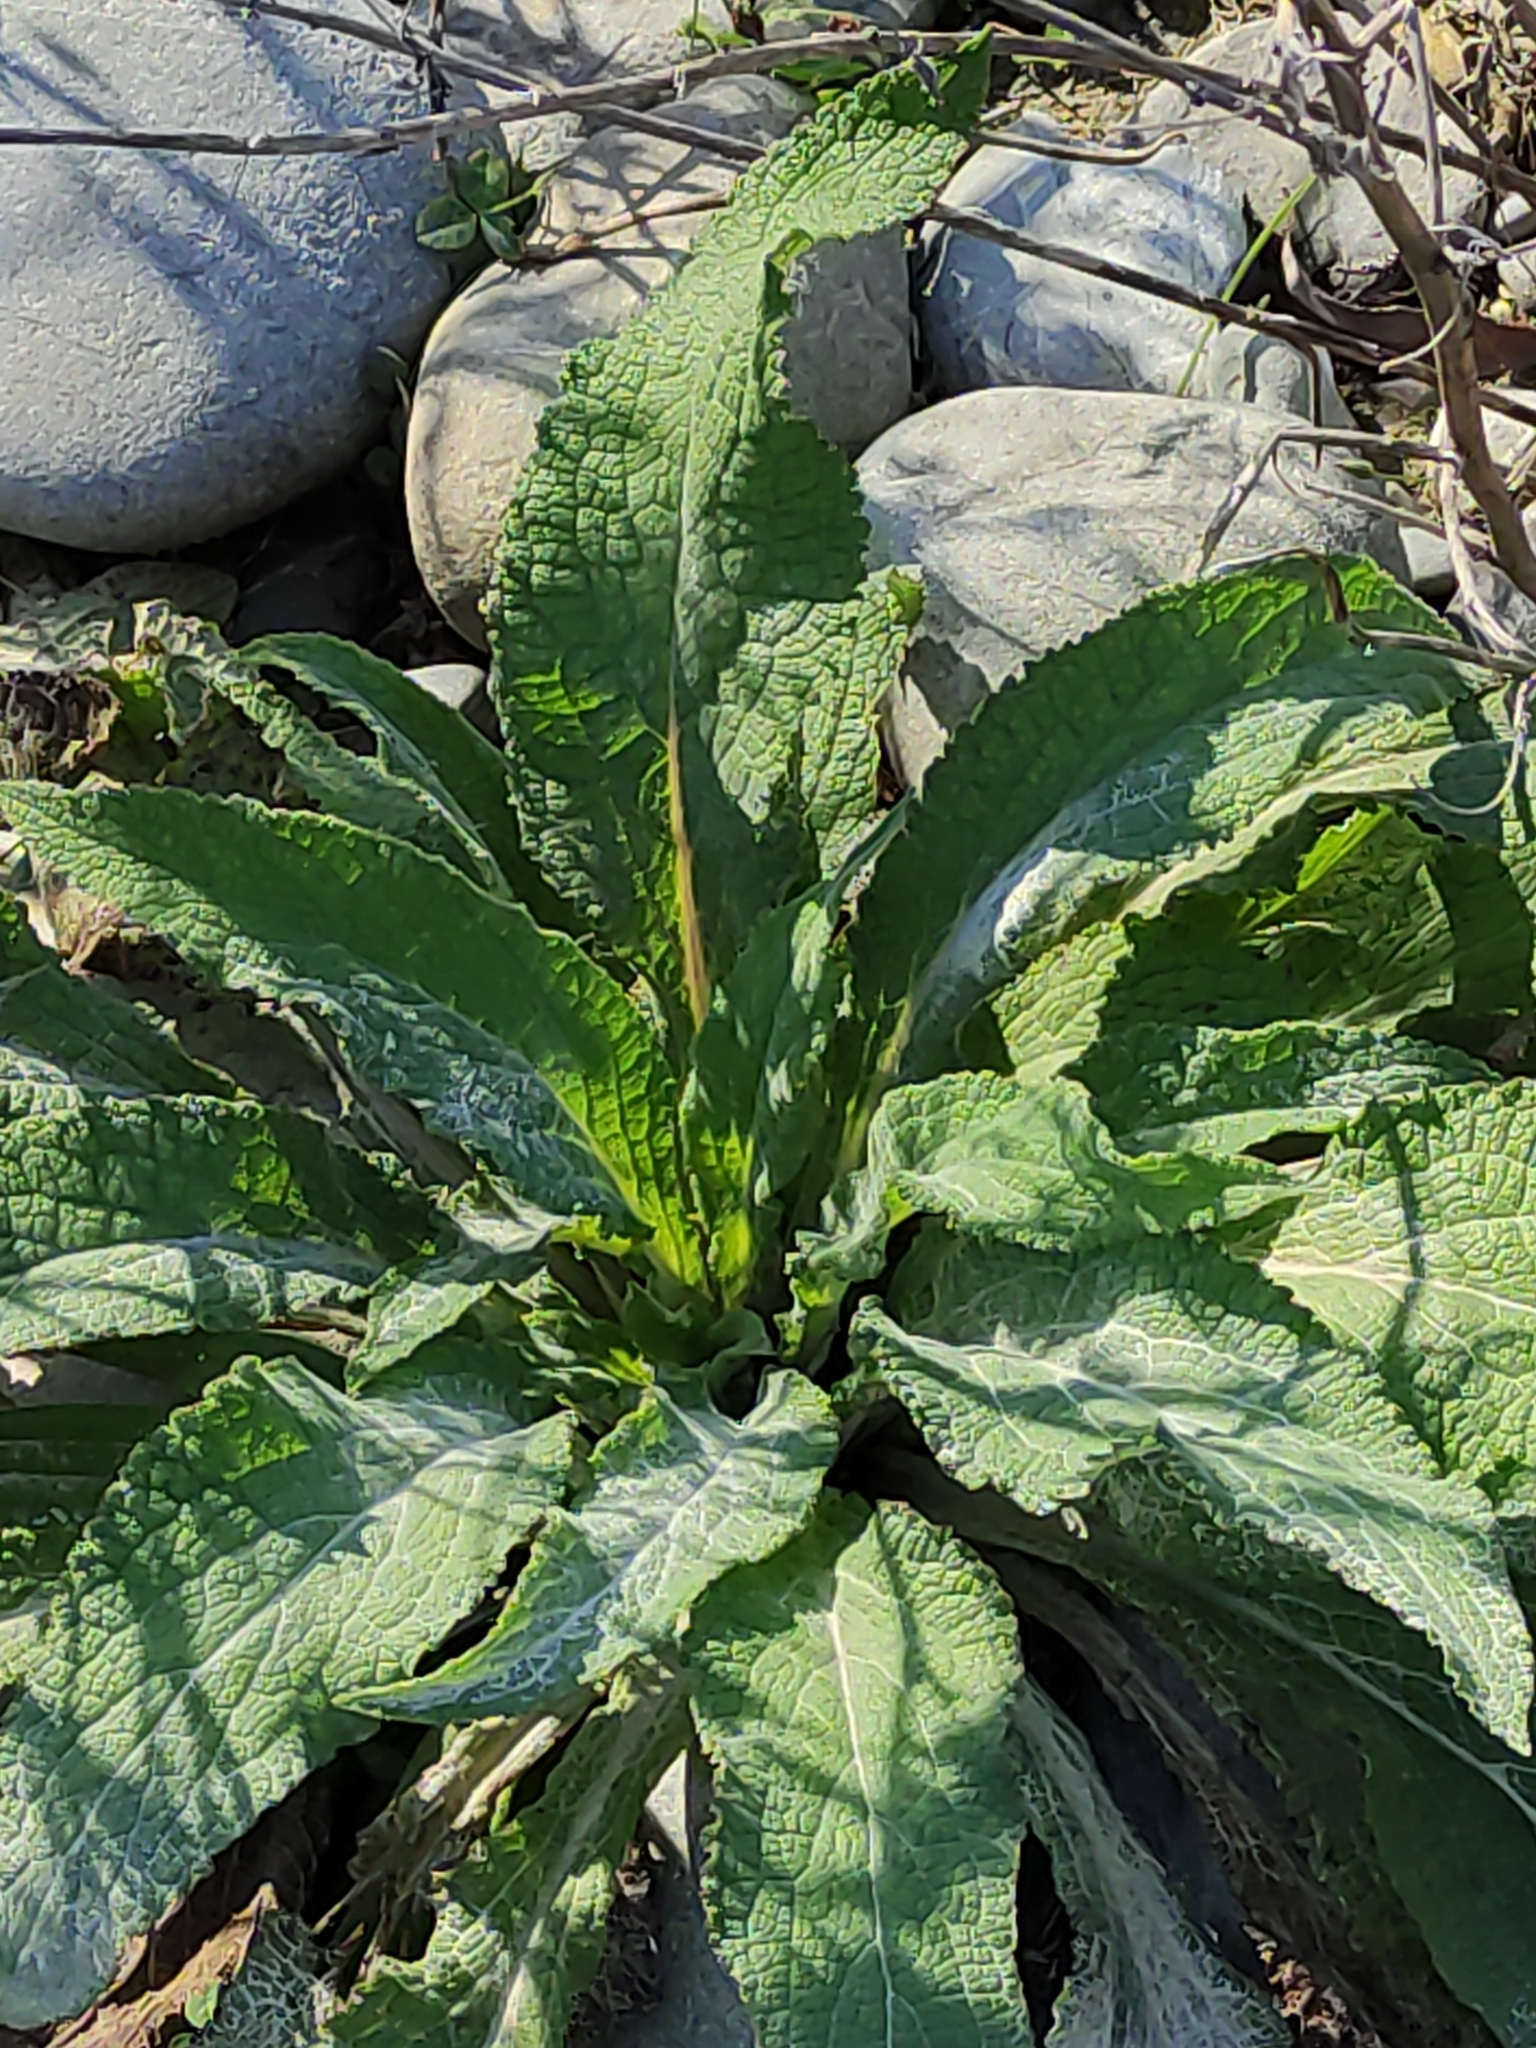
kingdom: Plantae
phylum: Tracheophyta
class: Magnoliopsida
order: Lamiales
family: Plantaginaceae
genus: Digitalis
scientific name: Digitalis purpurea
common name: Foxglove
